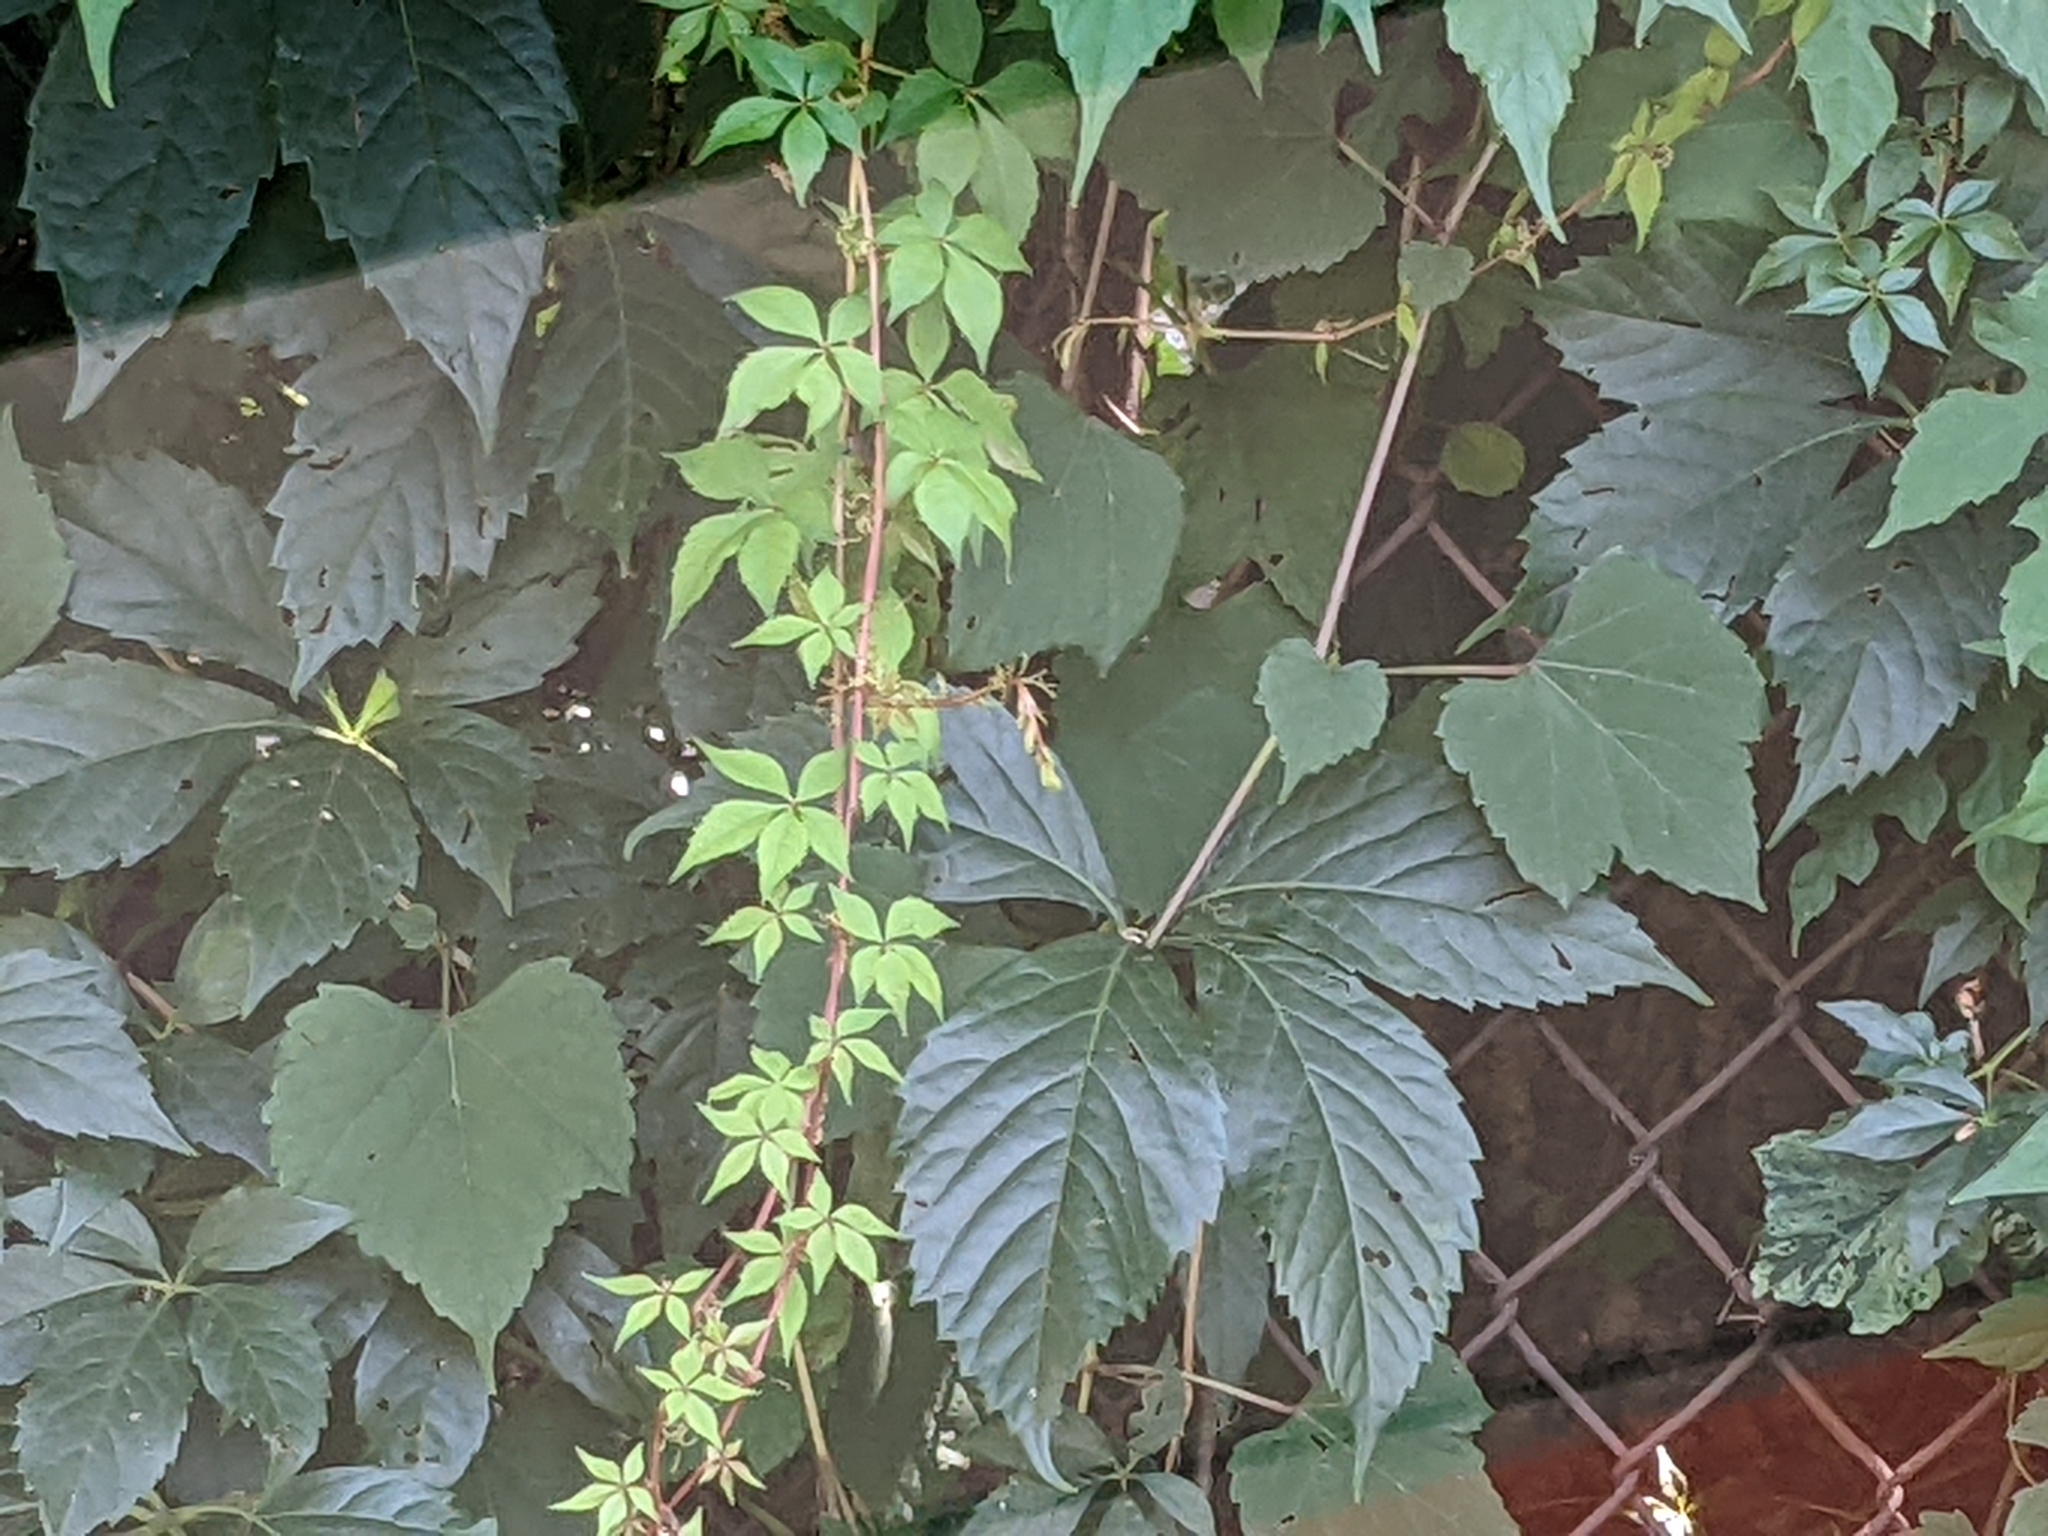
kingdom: Plantae
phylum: Tracheophyta
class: Magnoliopsida
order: Vitales
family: Vitaceae
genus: Parthenocissus
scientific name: Parthenocissus quinquefolia
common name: Virginia-creeper
